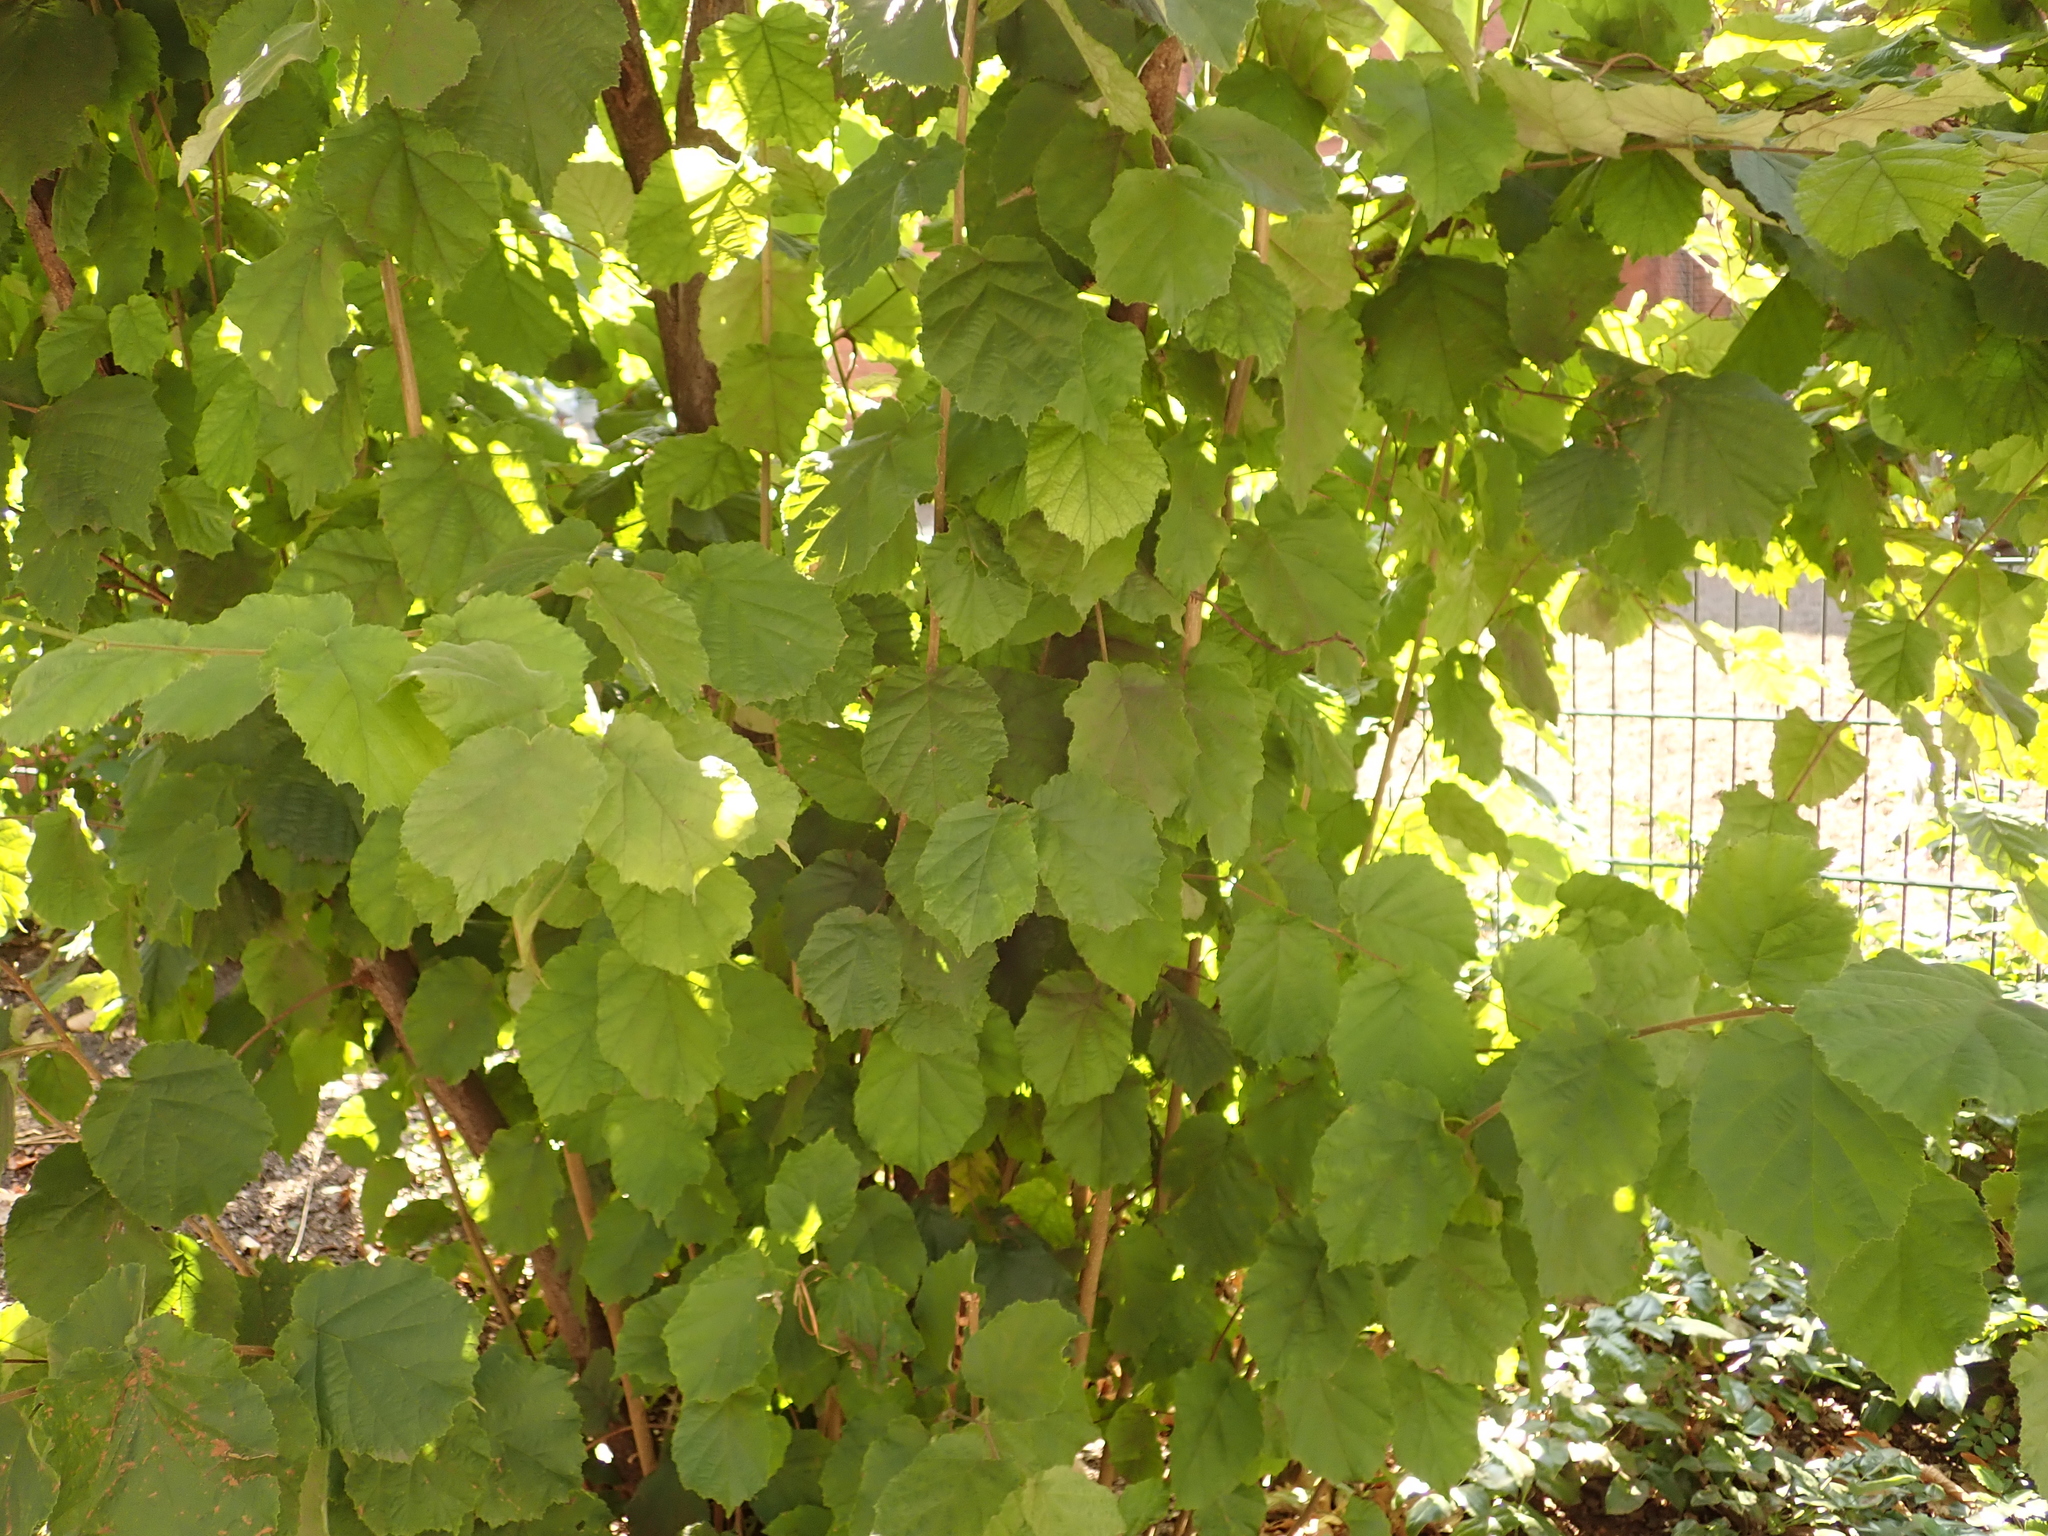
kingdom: Plantae
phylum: Tracheophyta
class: Magnoliopsida
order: Fagales
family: Betulaceae
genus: Corylus
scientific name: Corylus avellana
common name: European hazel
